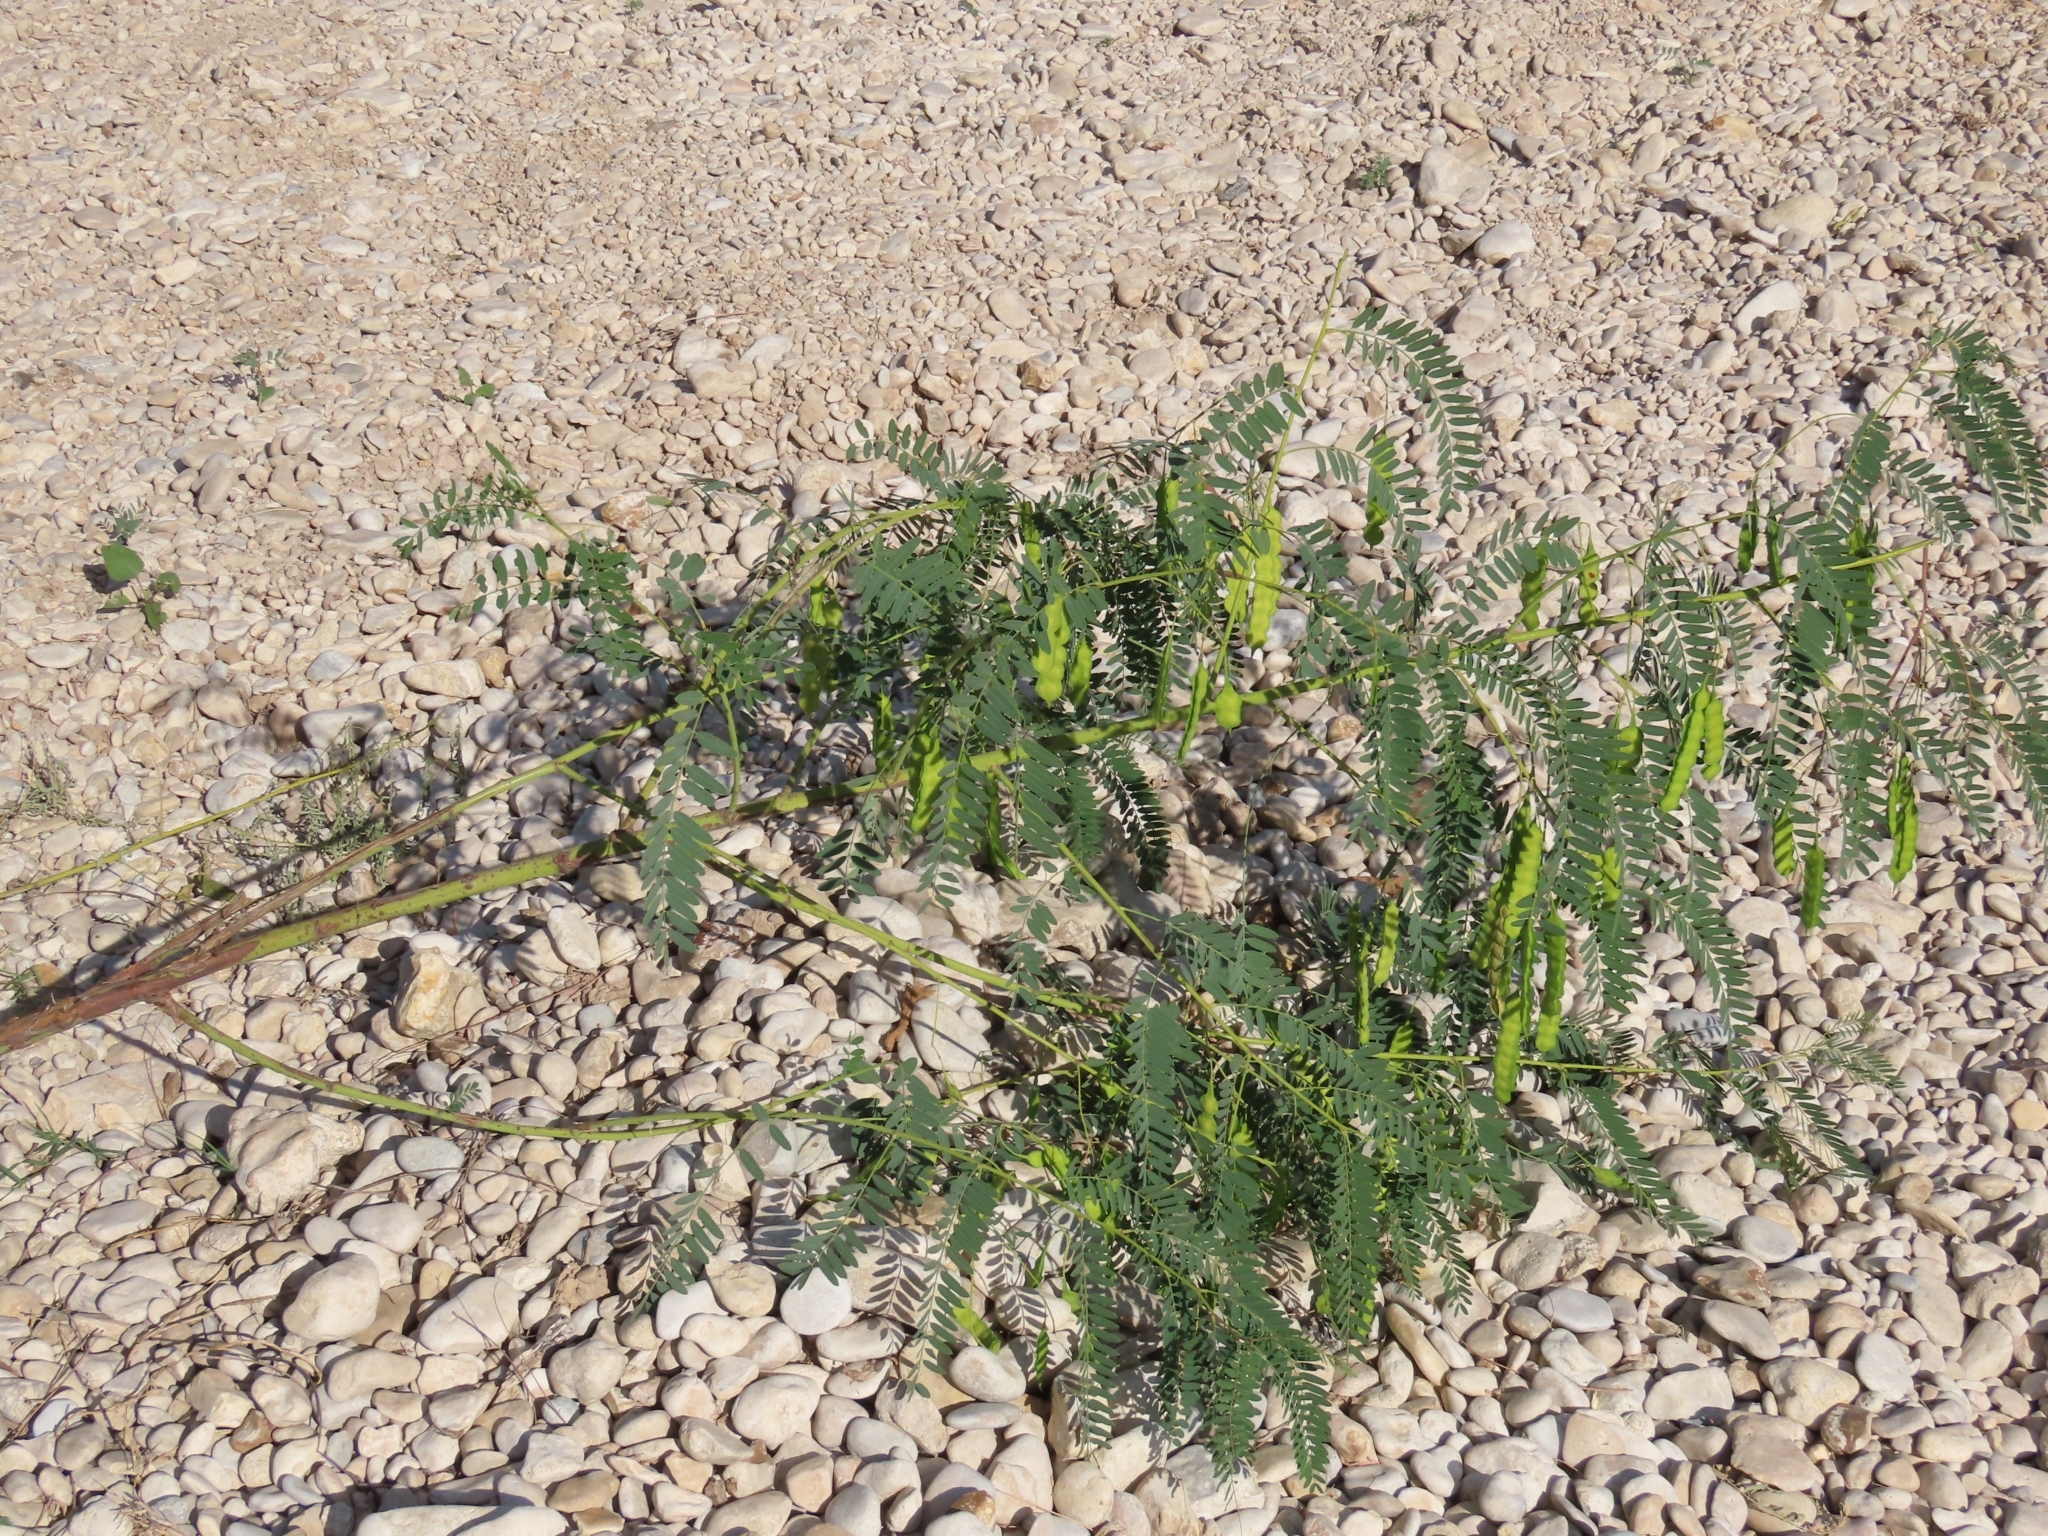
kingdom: Plantae
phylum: Tracheophyta
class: Magnoliopsida
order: Fabales
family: Fabaceae
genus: Sesbania
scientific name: Sesbania drummondii
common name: Poison-bean
